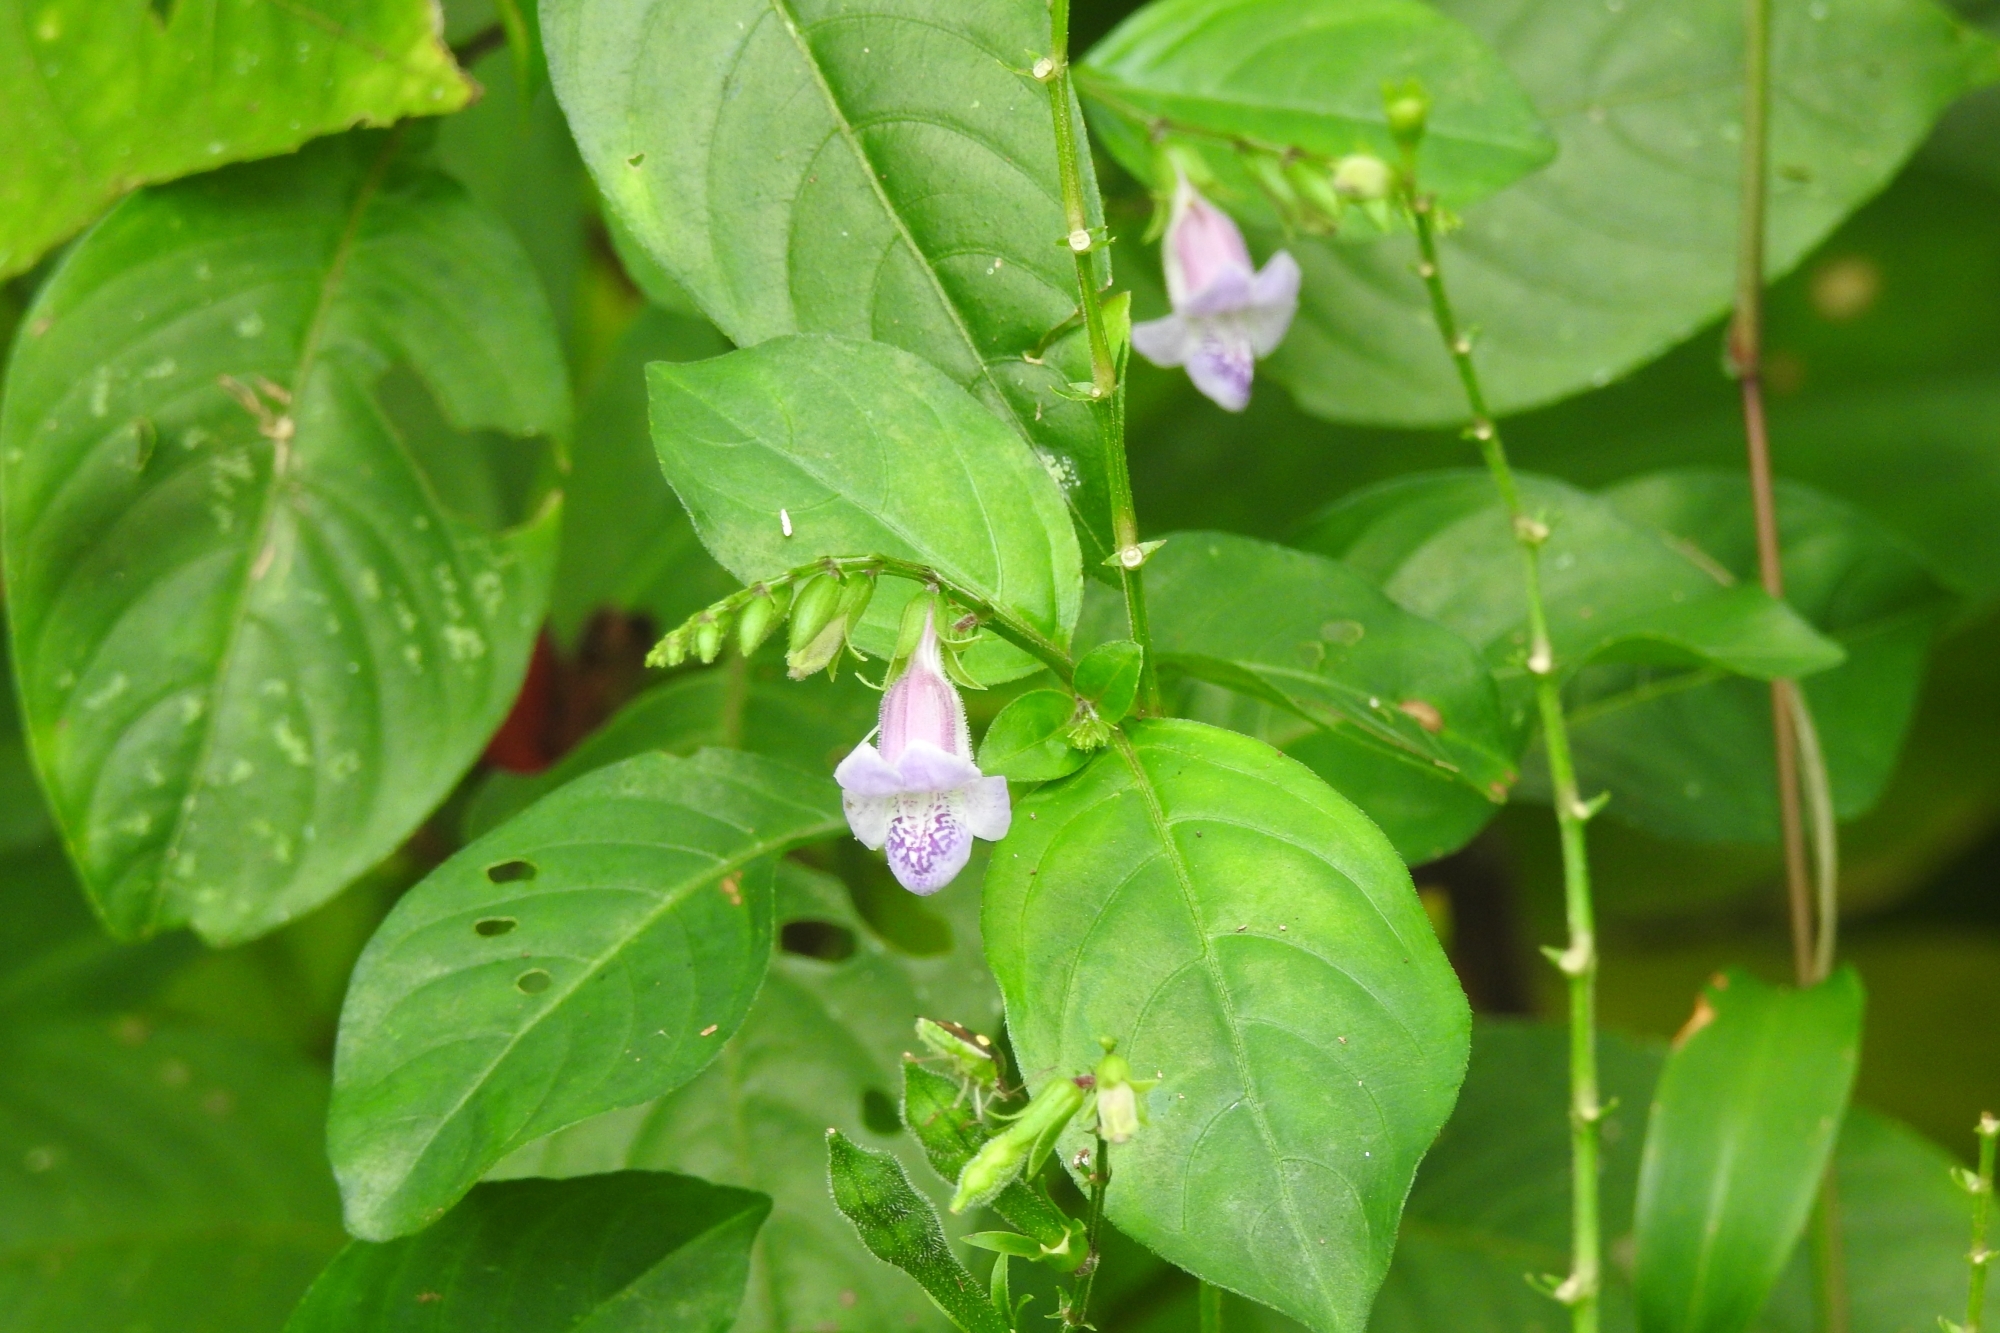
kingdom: Plantae
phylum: Tracheophyta
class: Magnoliopsida
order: Lamiales
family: Acanthaceae
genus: Asystasia
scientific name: Asystasia dalzelliana
